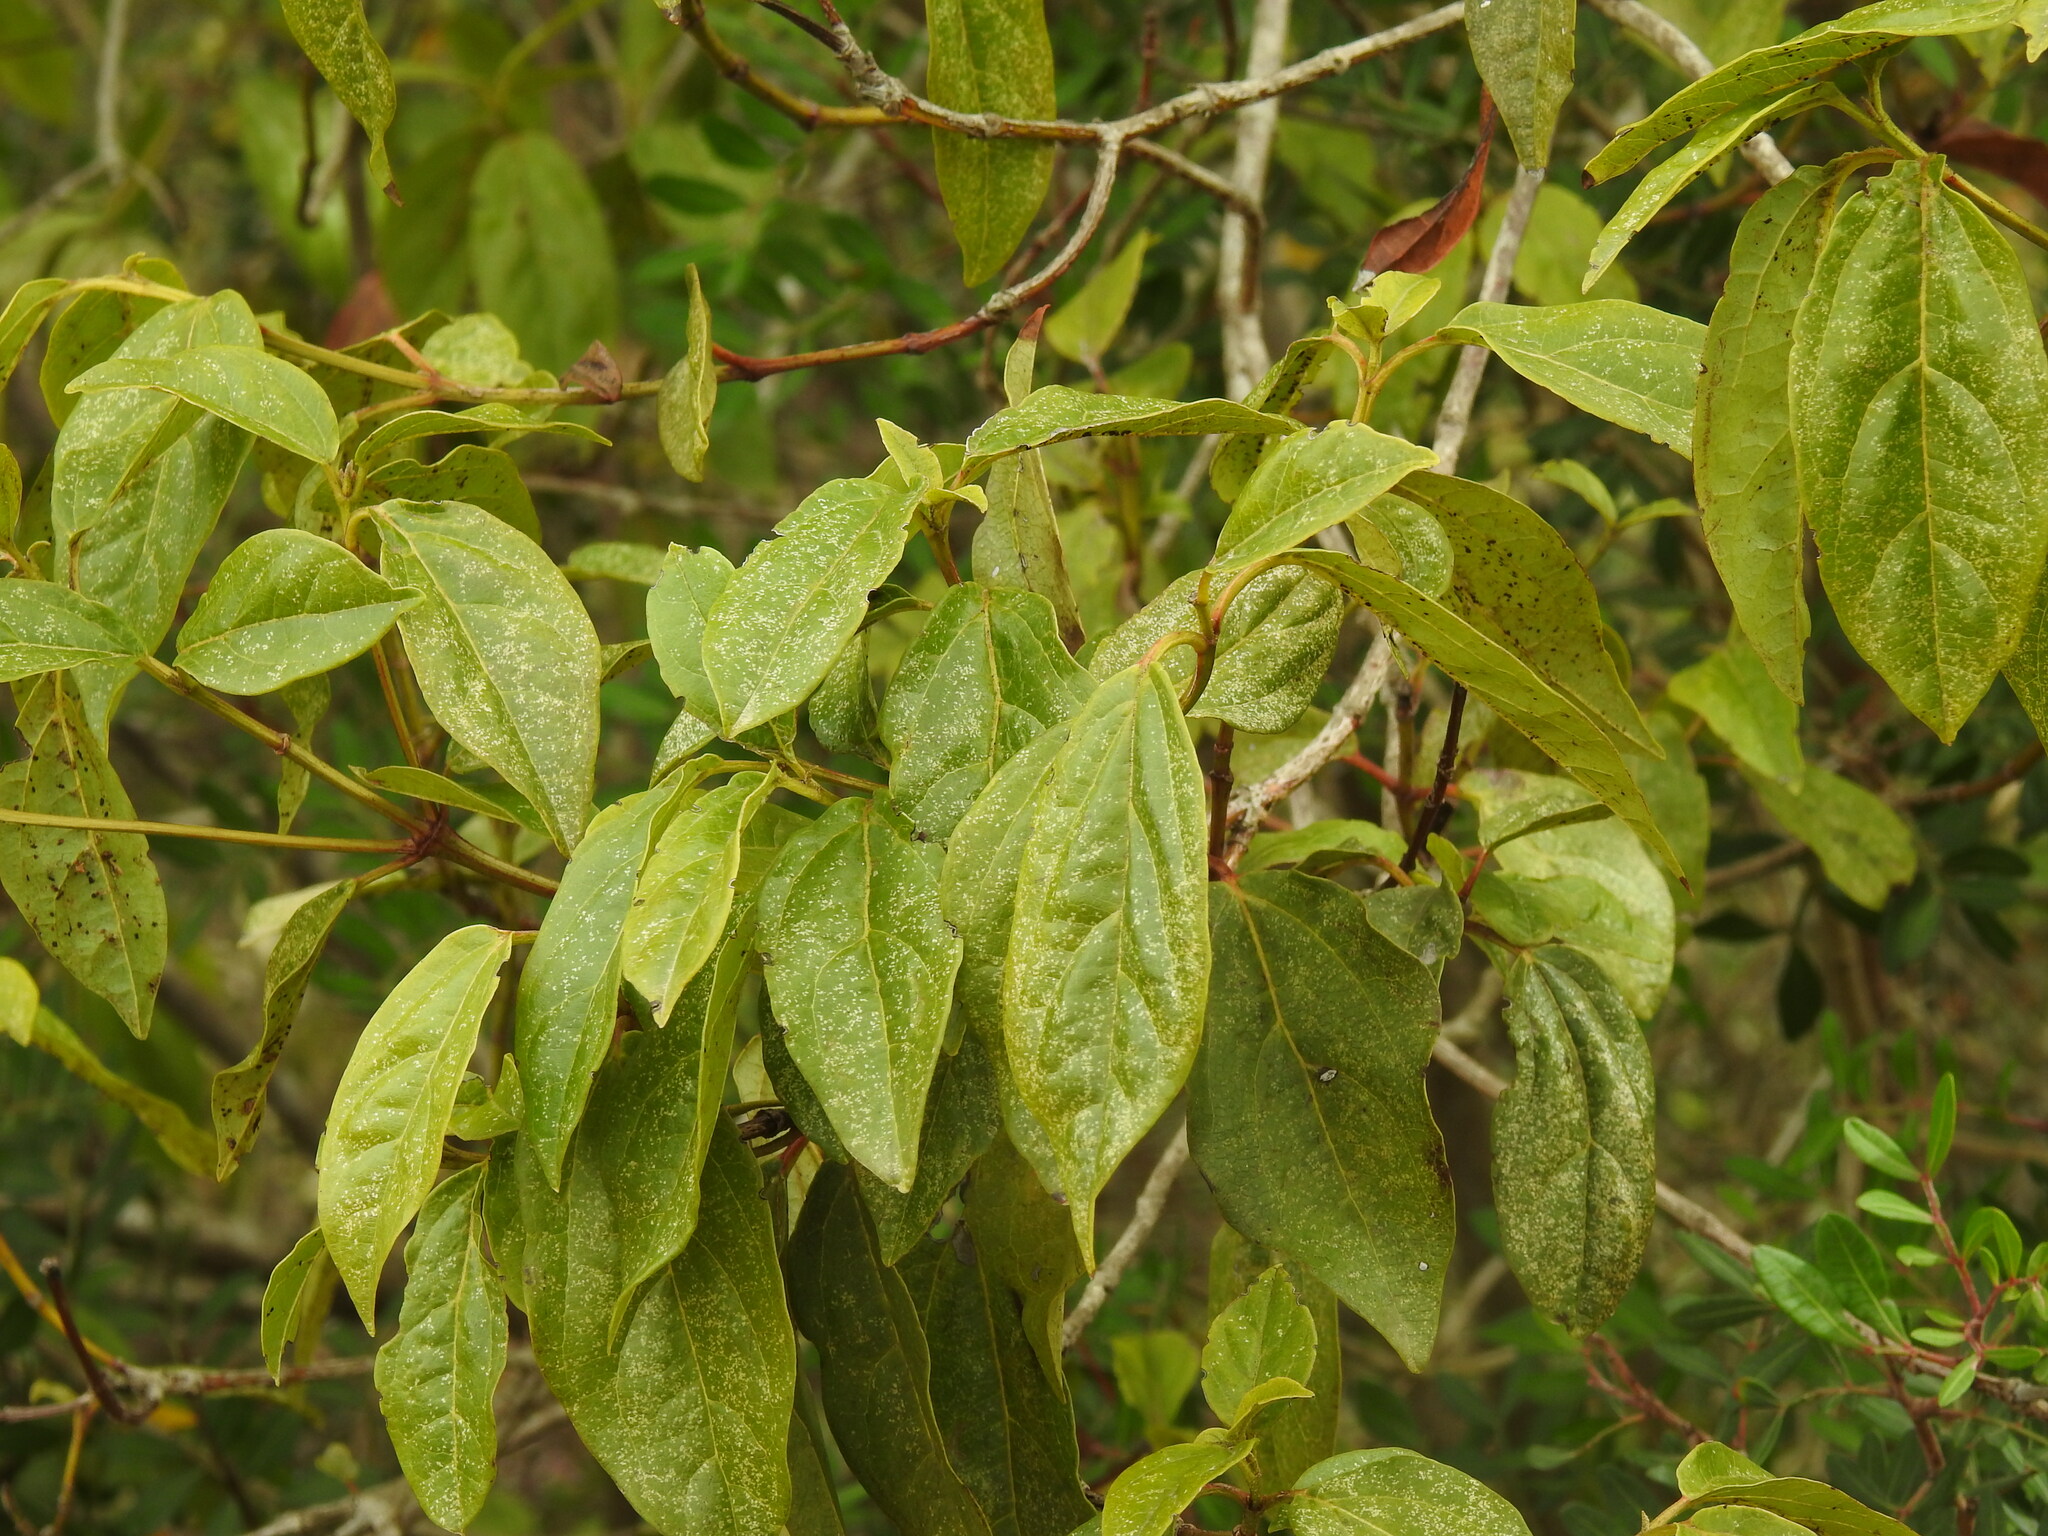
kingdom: Plantae
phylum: Tracheophyta
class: Magnoliopsida
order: Dipsacales
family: Viburnaceae
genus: Viburnum
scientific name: Viburnum tinus
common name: Laurustinus
